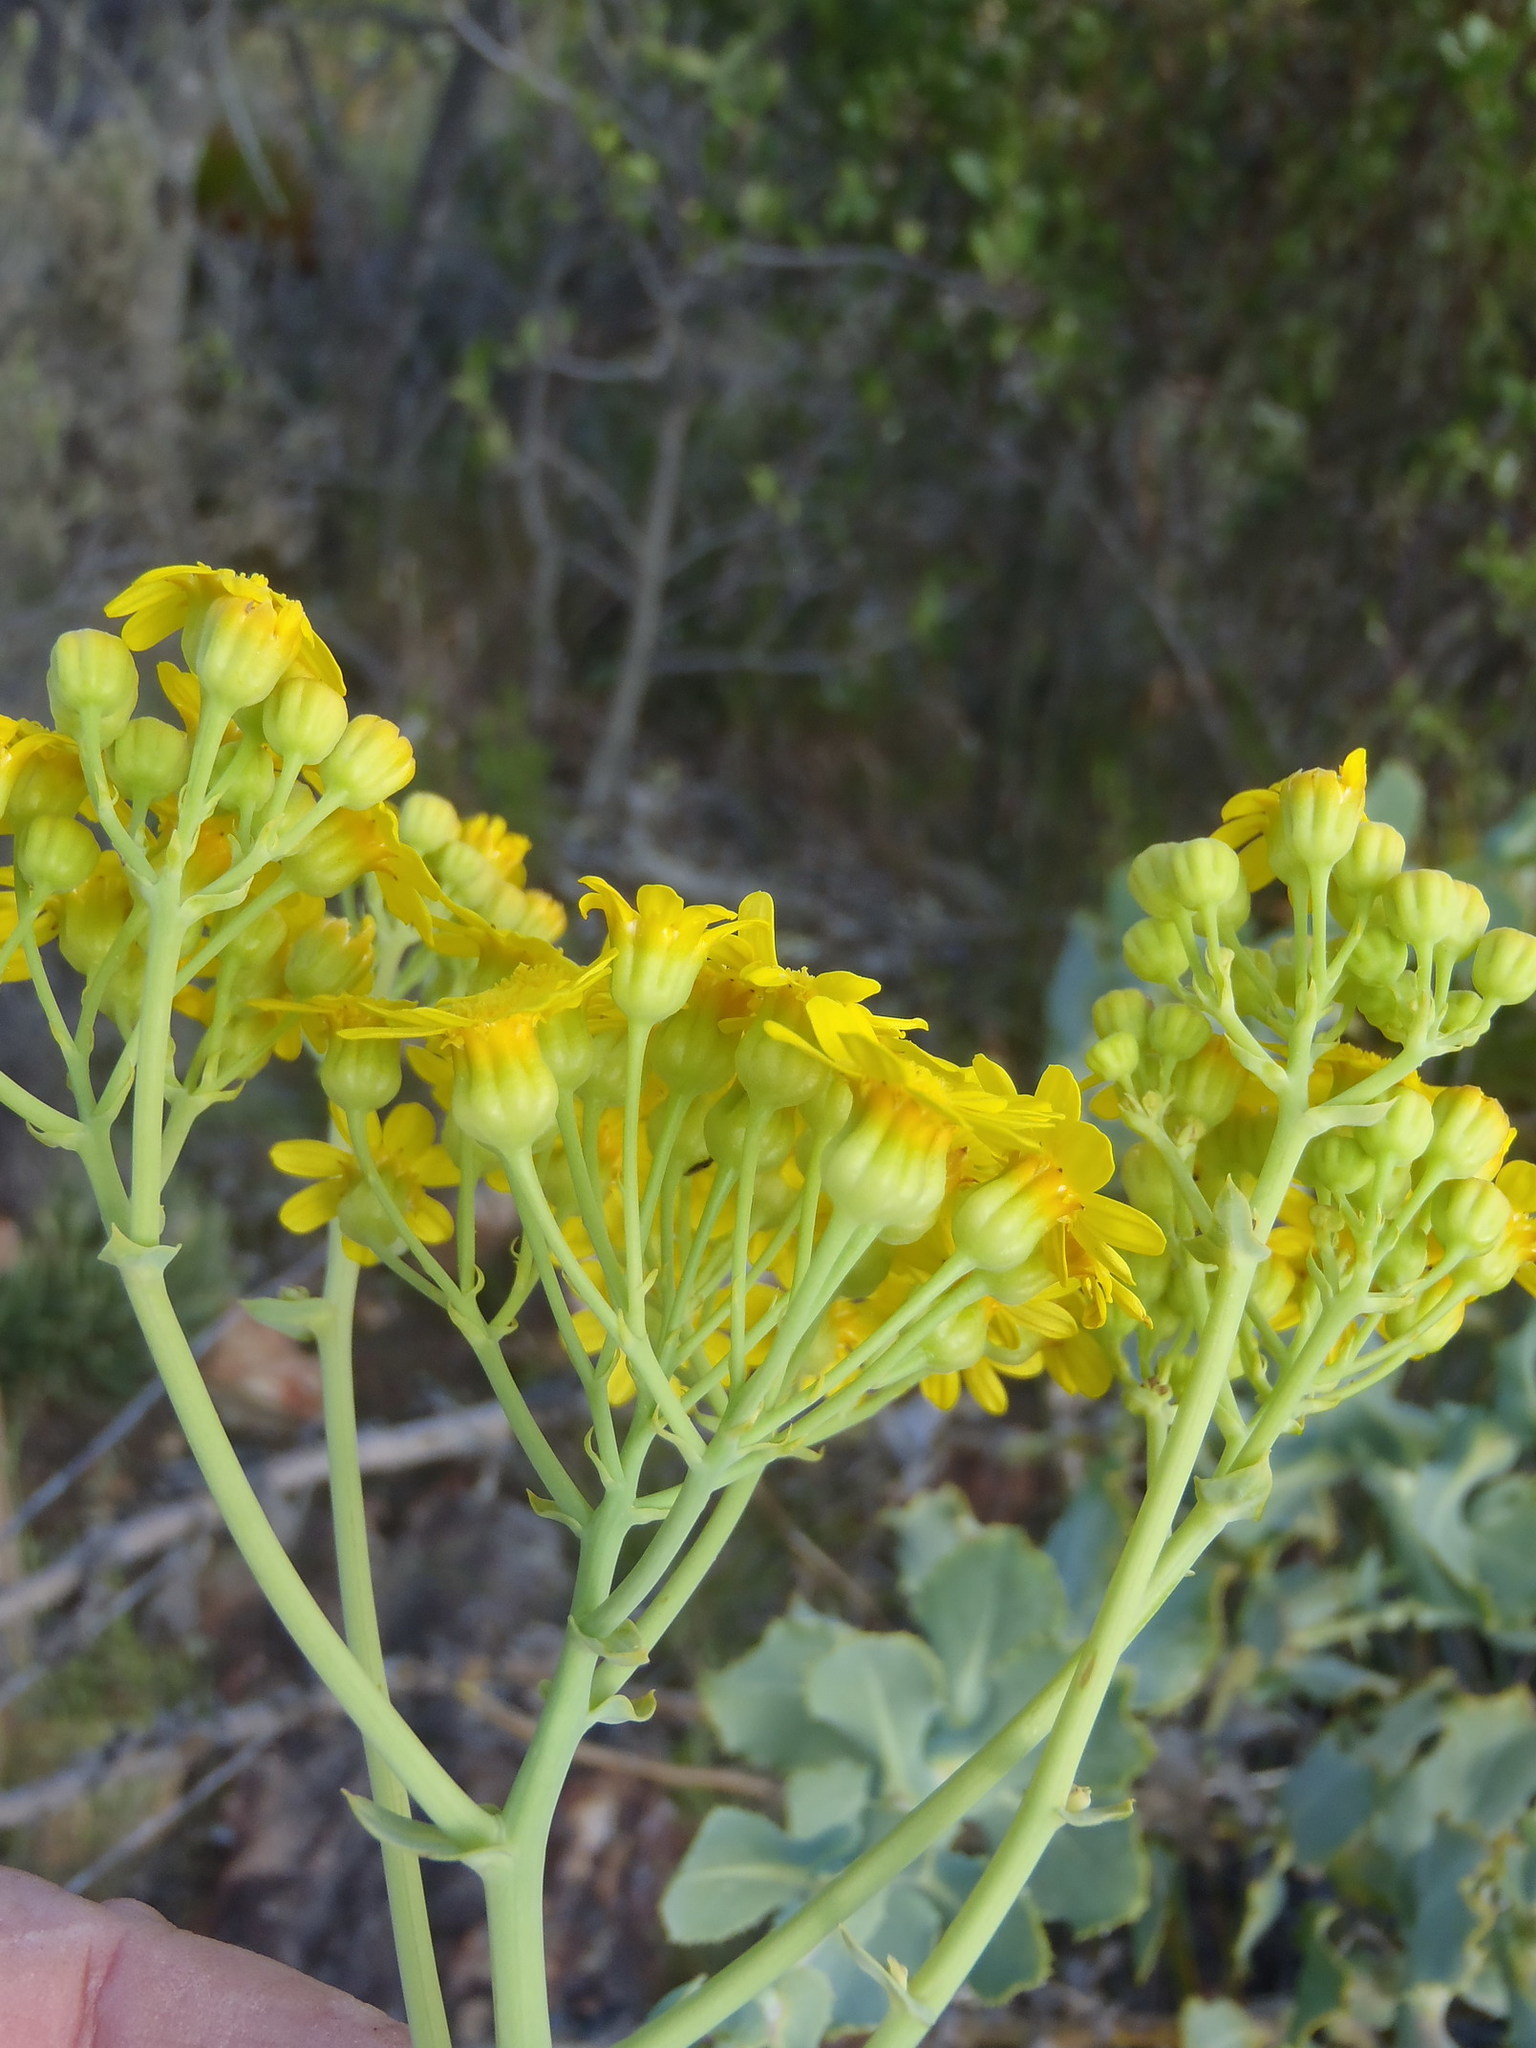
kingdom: Plantae
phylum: Tracheophyta
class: Magnoliopsida
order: Asterales
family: Asteraceae
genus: Othonna
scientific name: Othonna parviflora
